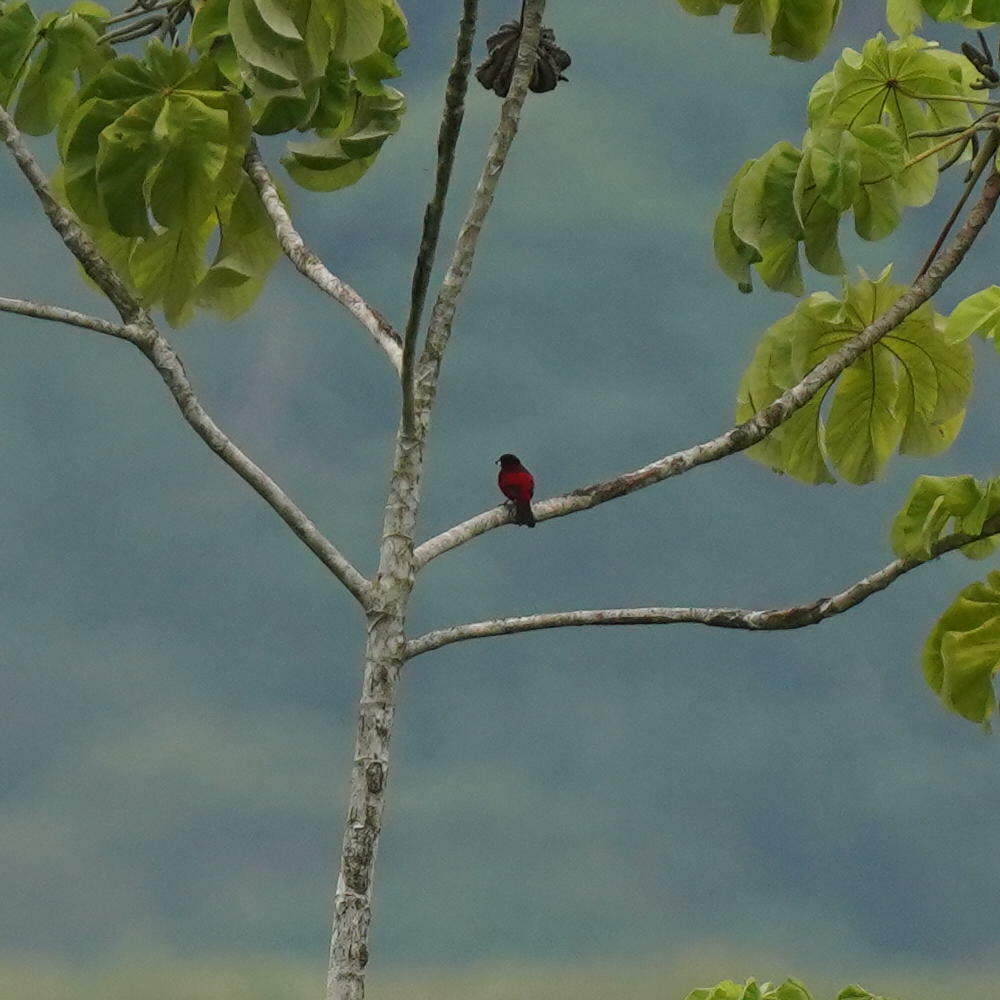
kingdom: Animalia
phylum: Chordata
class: Aves
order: Passeriformes
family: Thraupidae
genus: Ramphocelus
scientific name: Ramphocelus dimidiatus
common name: Crimson-backed tanager
